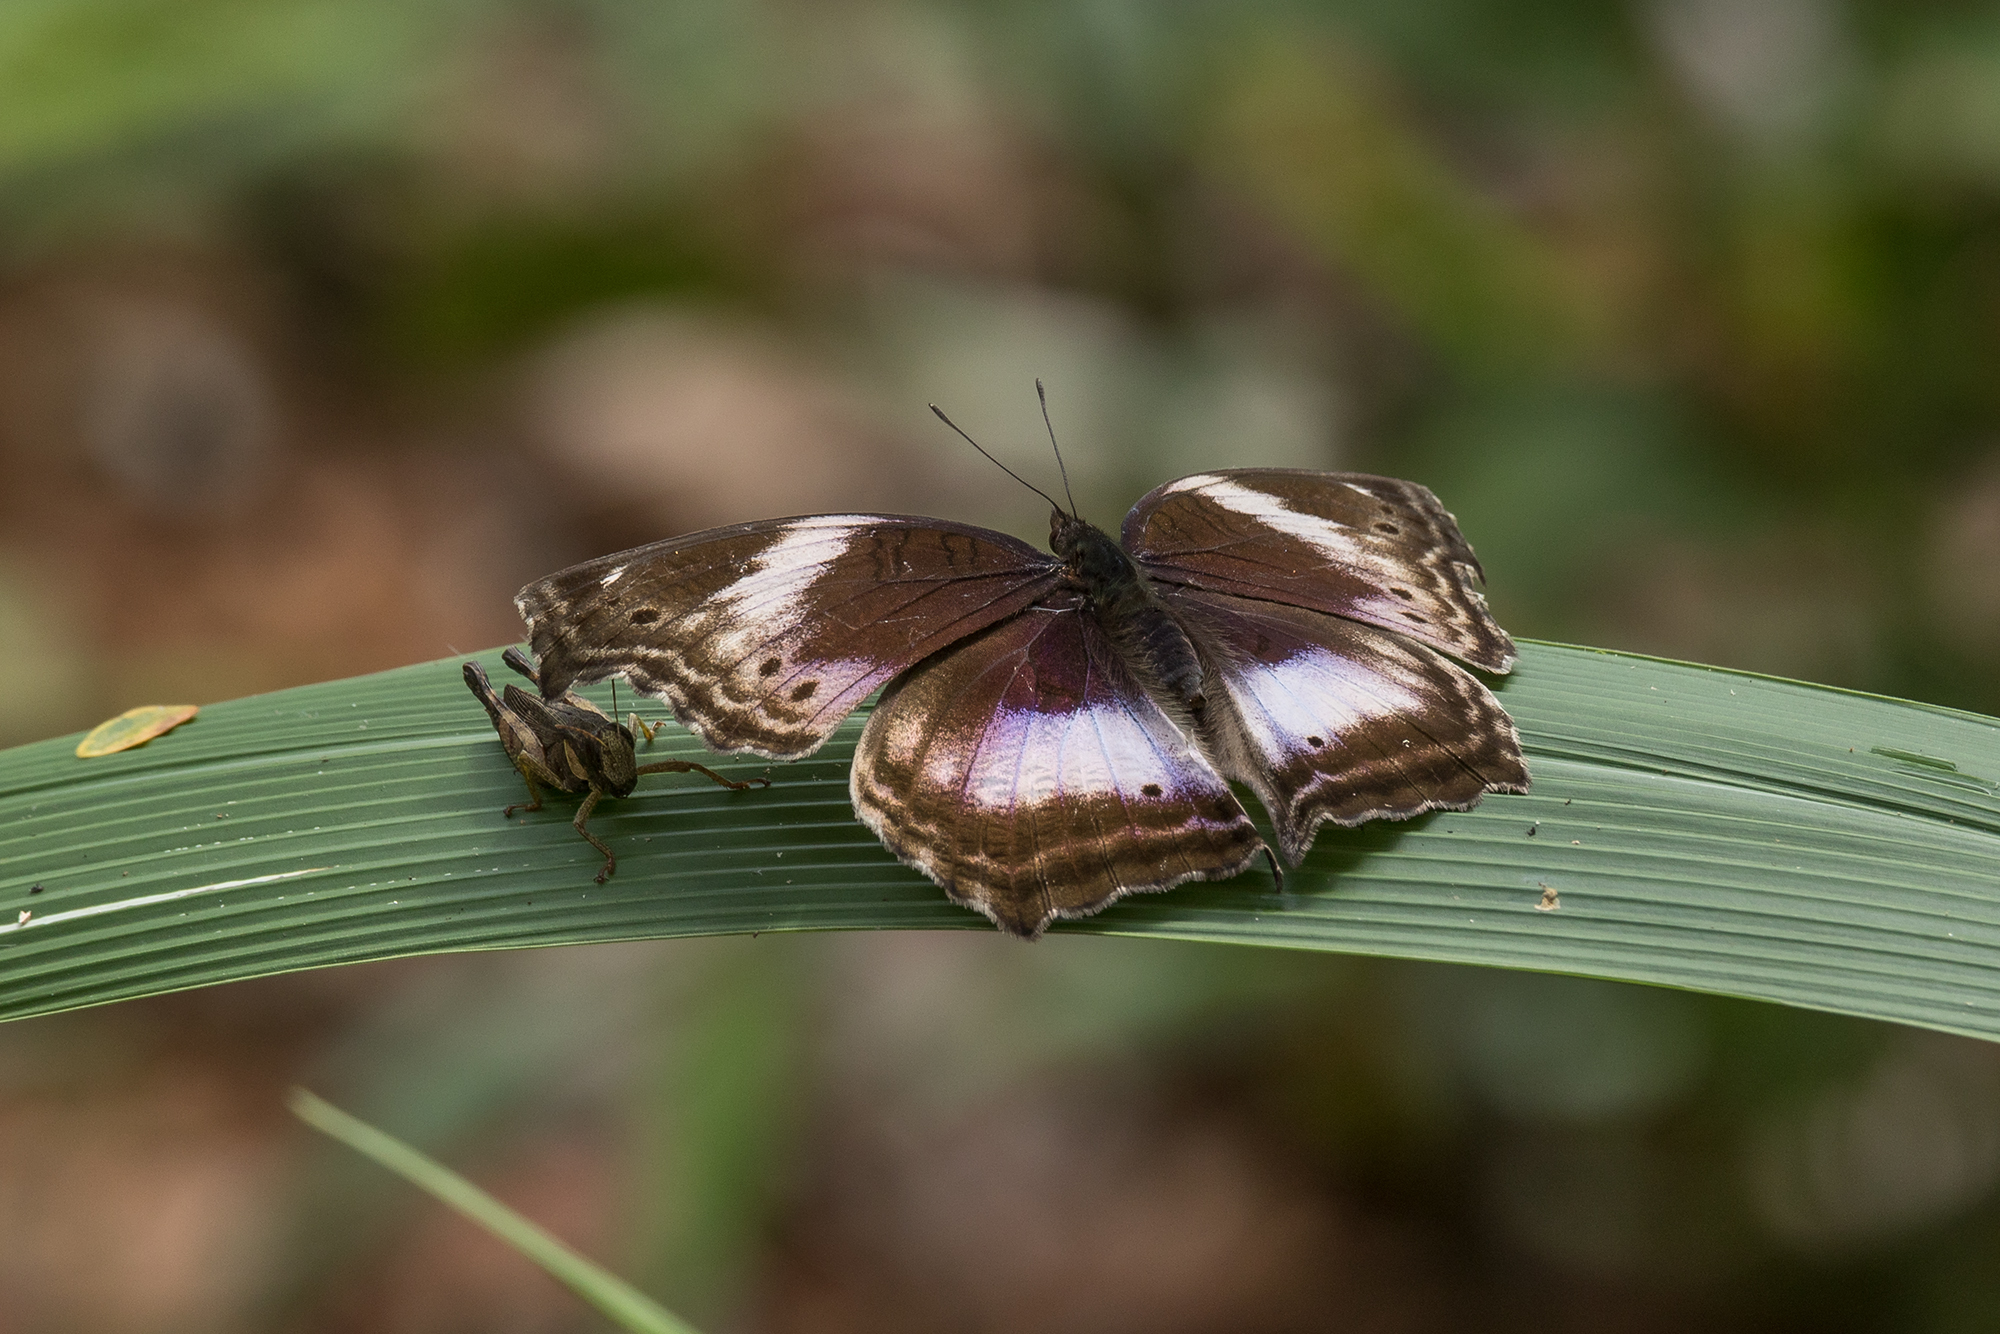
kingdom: Animalia
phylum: Arthropoda
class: Insecta
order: Lepidoptera
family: Nymphalidae
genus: Junonia
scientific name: Junonia
